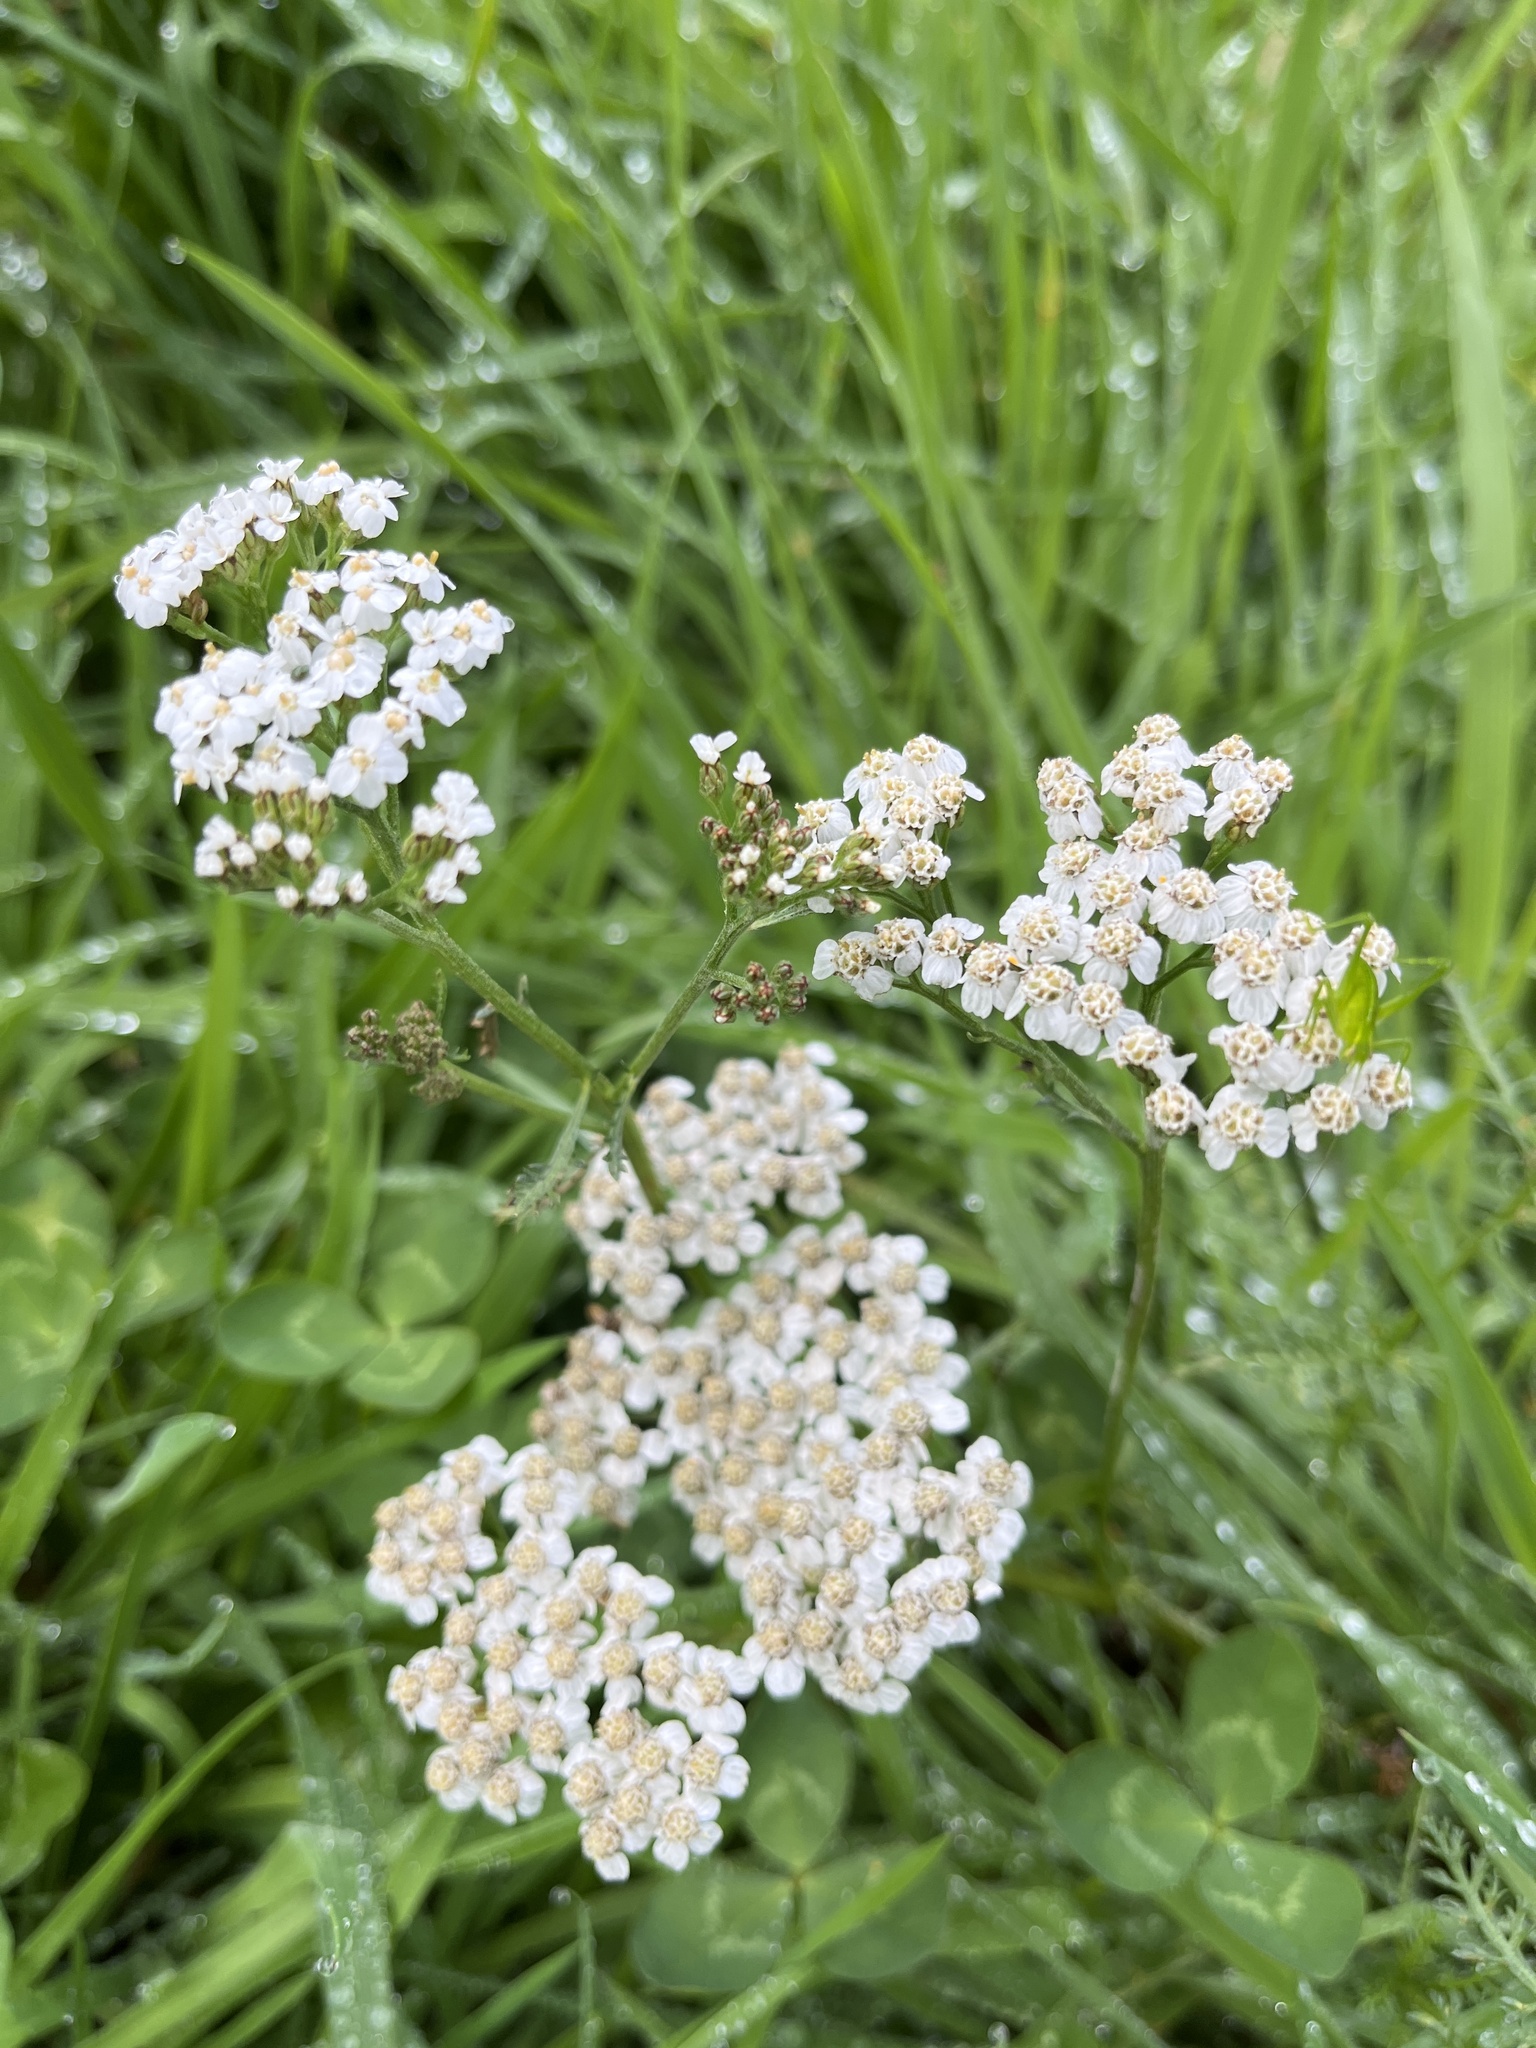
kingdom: Plantae
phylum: Tracheophyta
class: Magnoliopsida
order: Asterales
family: Asteraceae
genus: Achillea
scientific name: Achillea millefolium
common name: Yarrow
